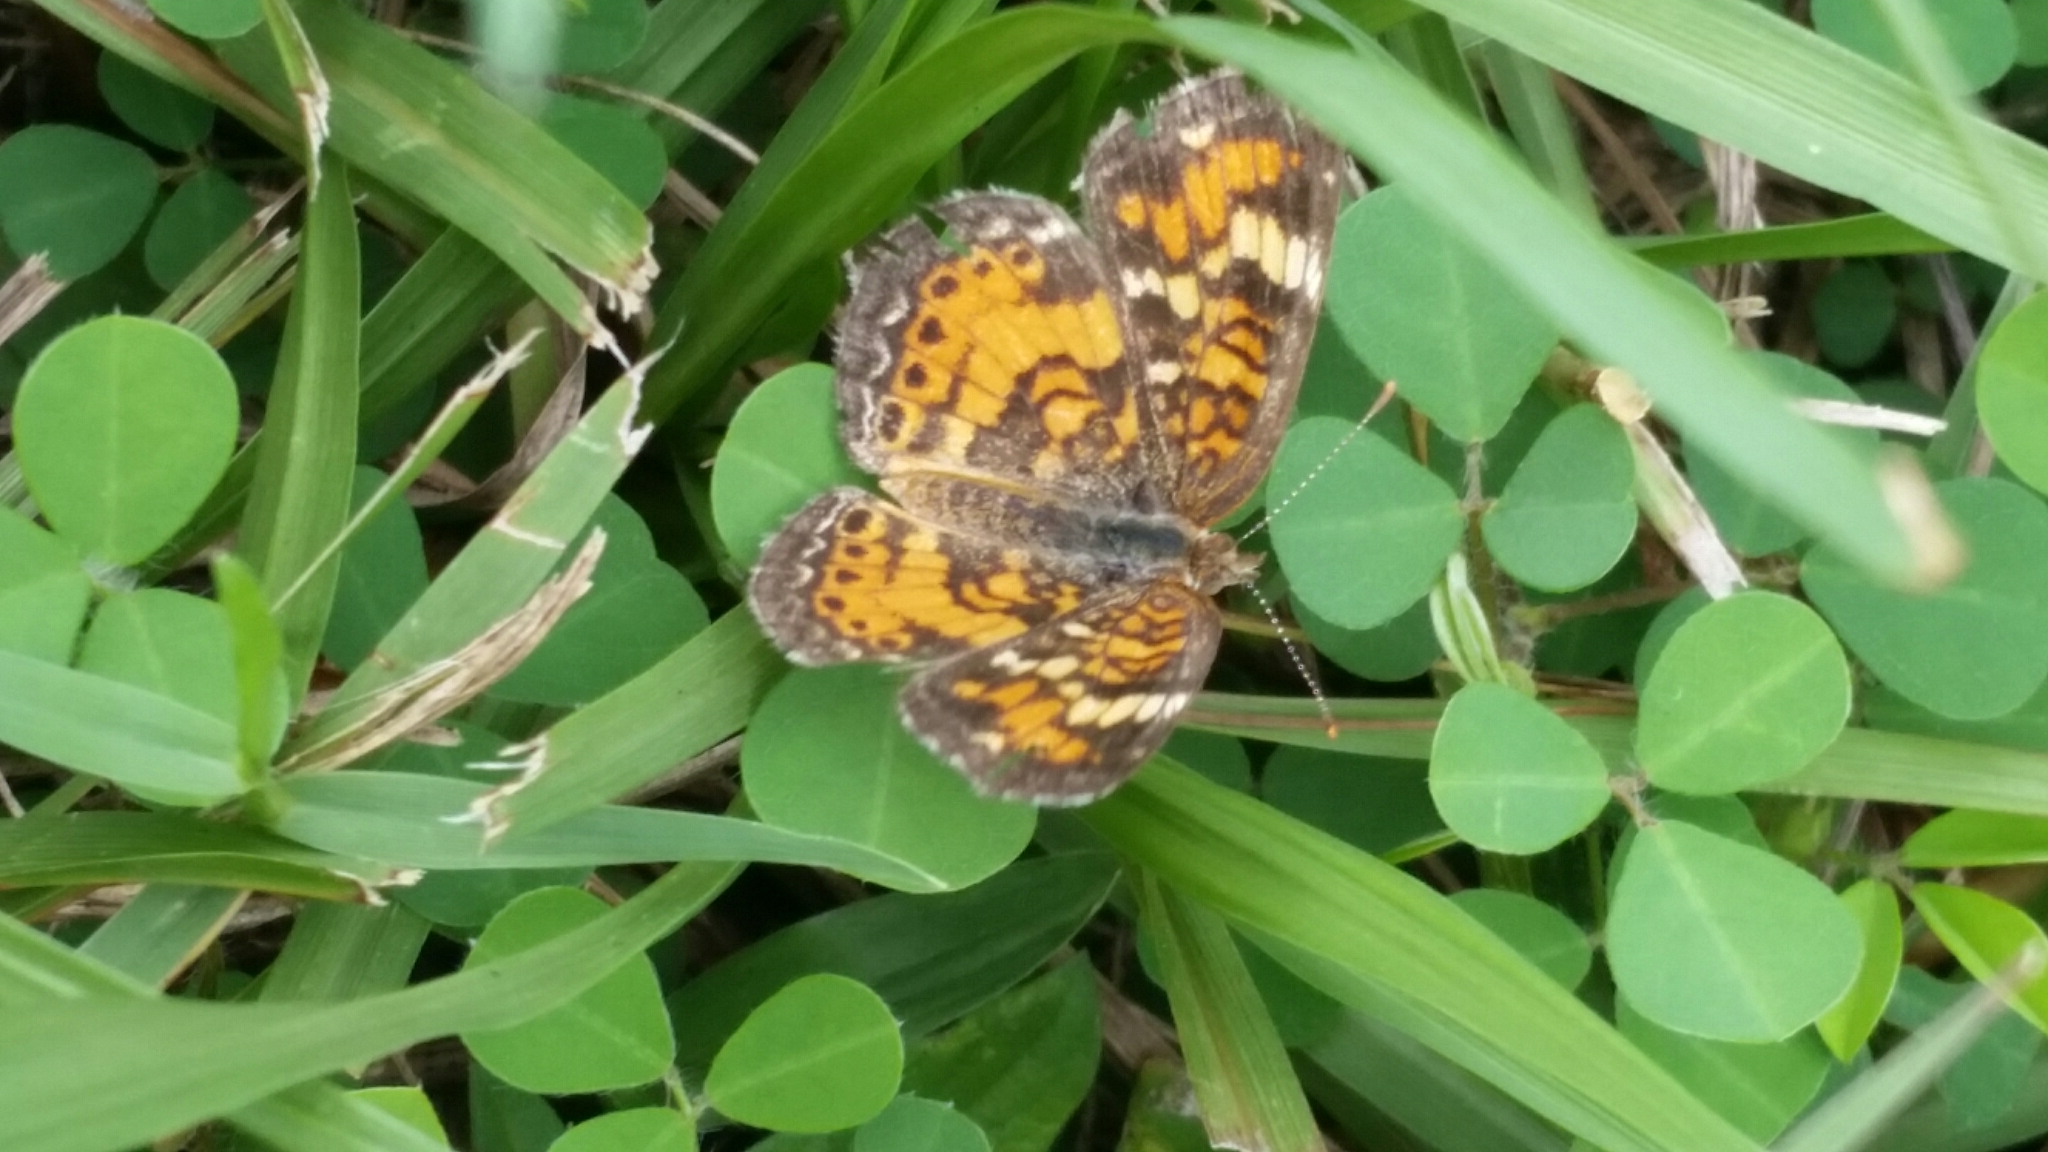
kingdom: Animalia
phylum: Arthropoda
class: Insecta
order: Lepidoptera
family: Nymphalidae
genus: Phyciodes
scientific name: Phyciodes phaon
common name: Phaon crescent
